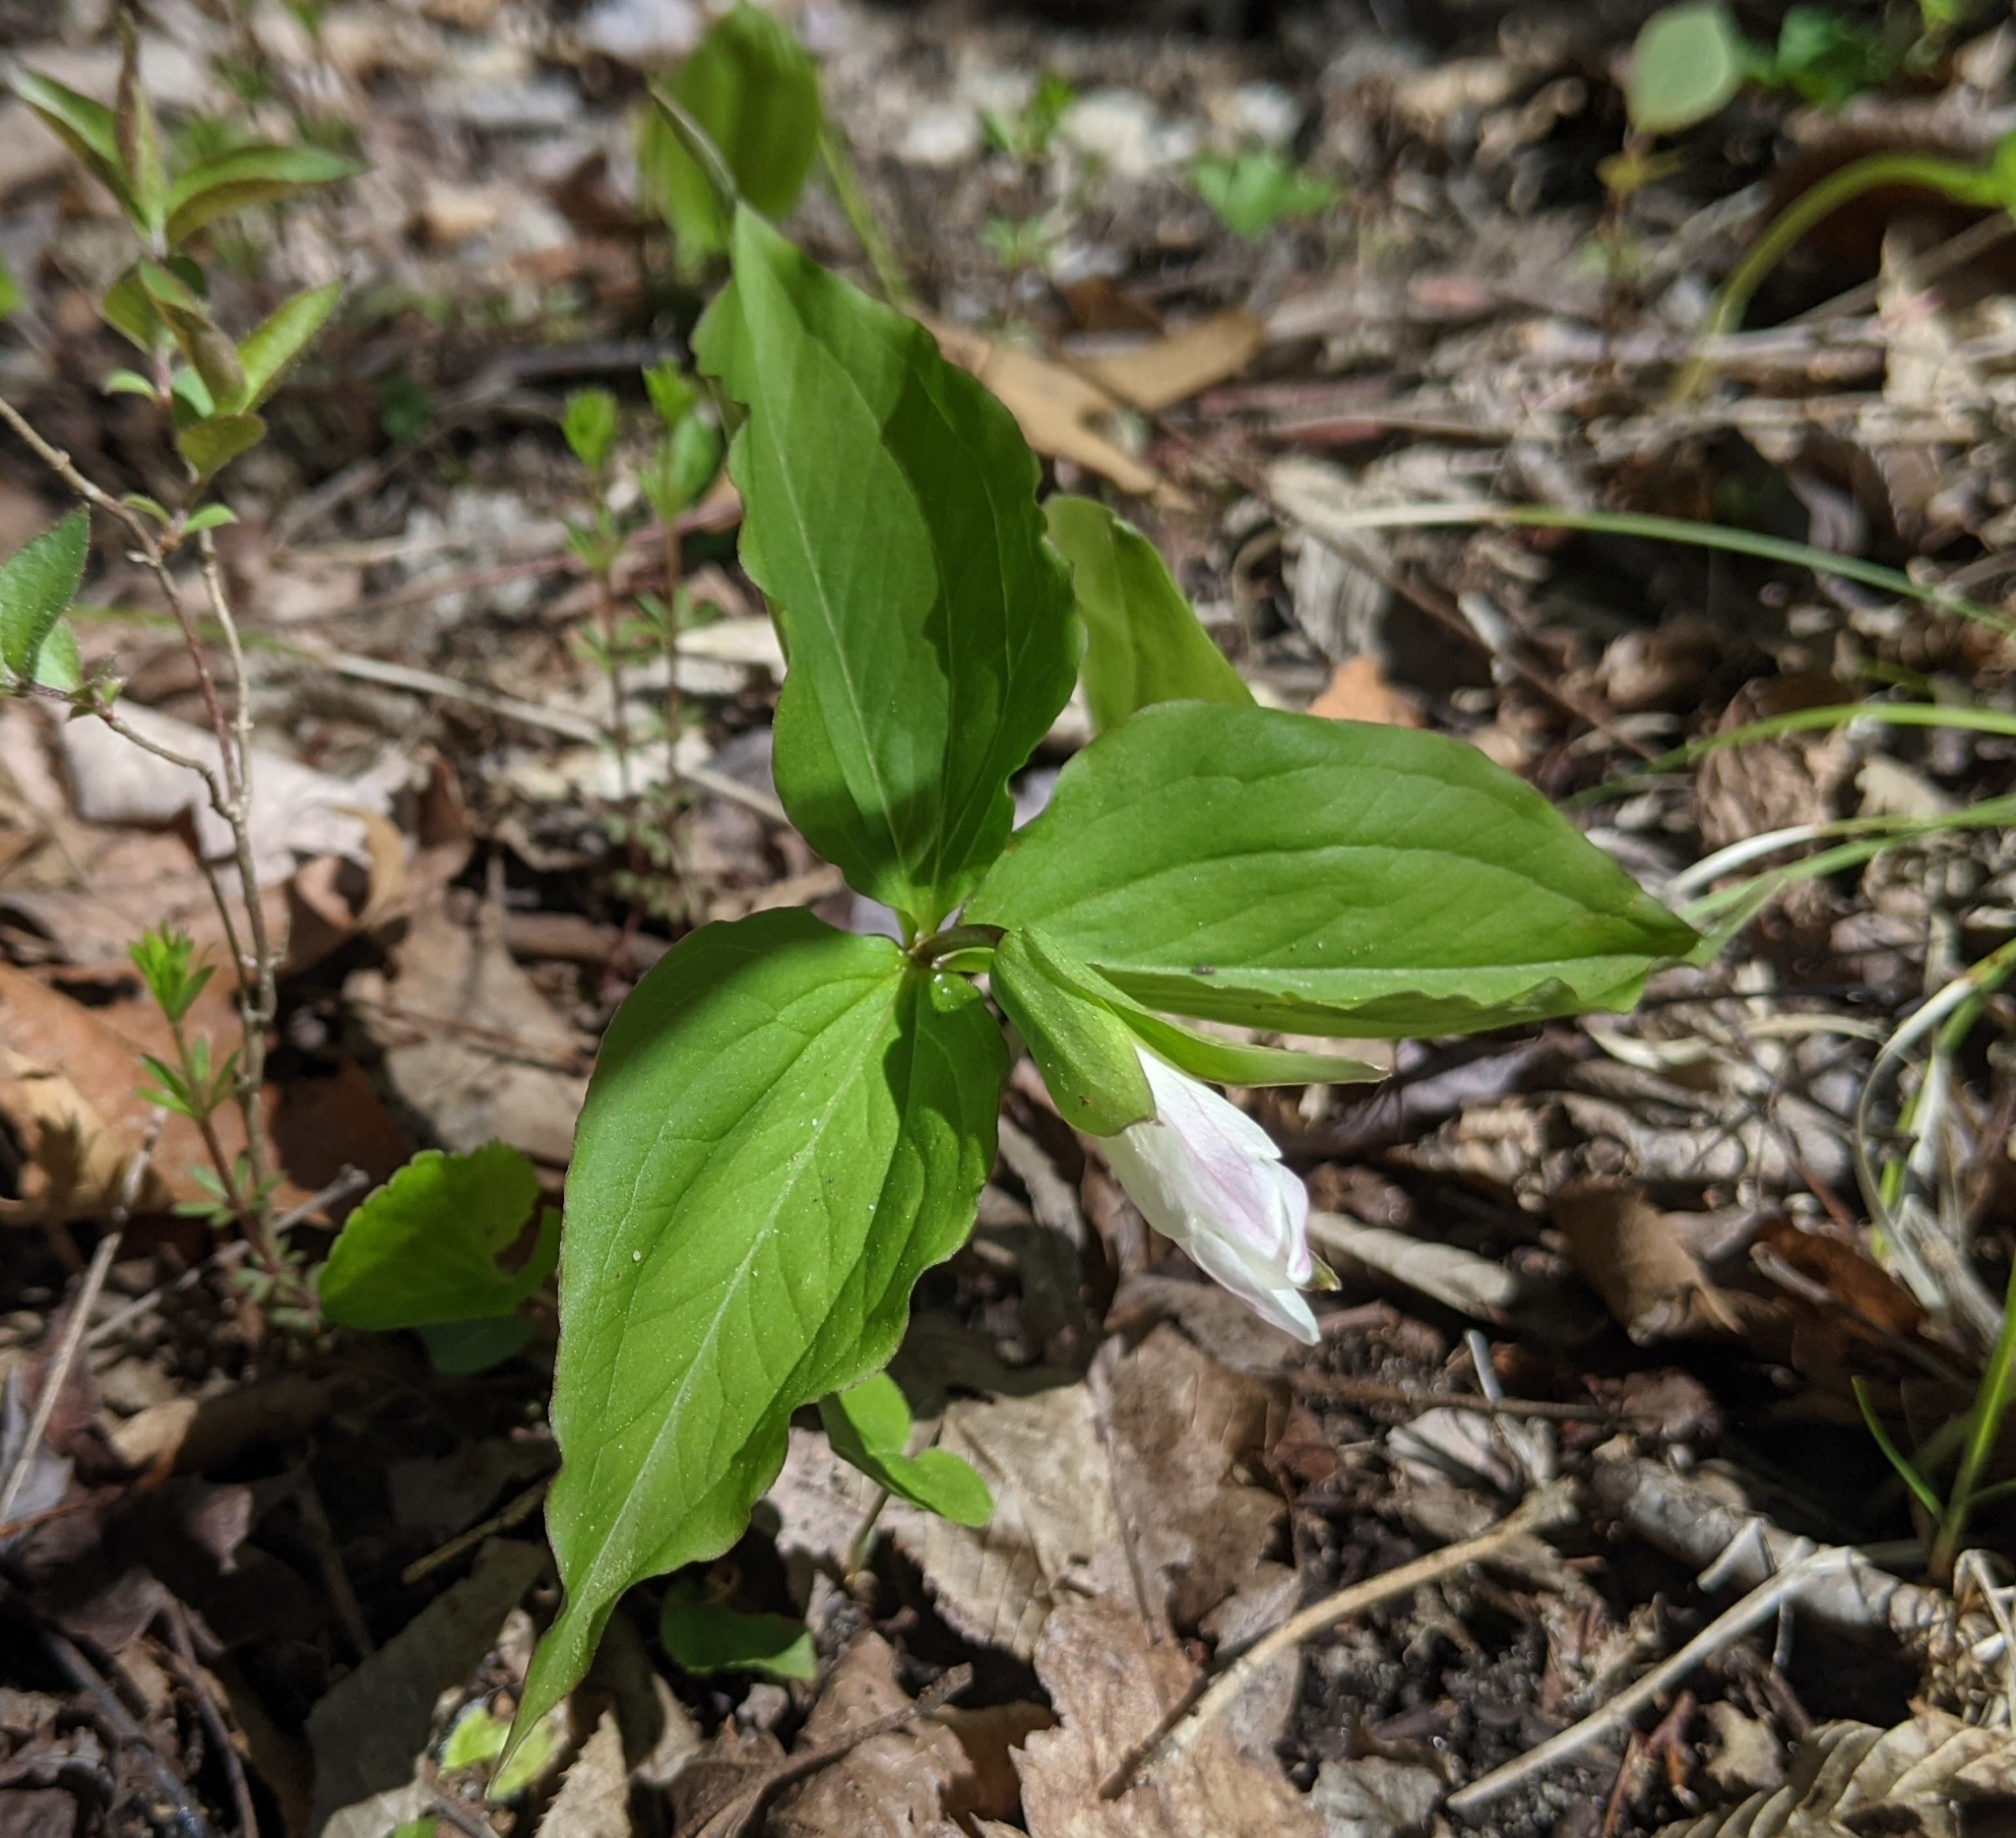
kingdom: Plantae
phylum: Tracheophyta
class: Liliopsida
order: Liliales
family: Melanthiaceae
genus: Trillium
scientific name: Trillium grandiflorum
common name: Great white trillium
